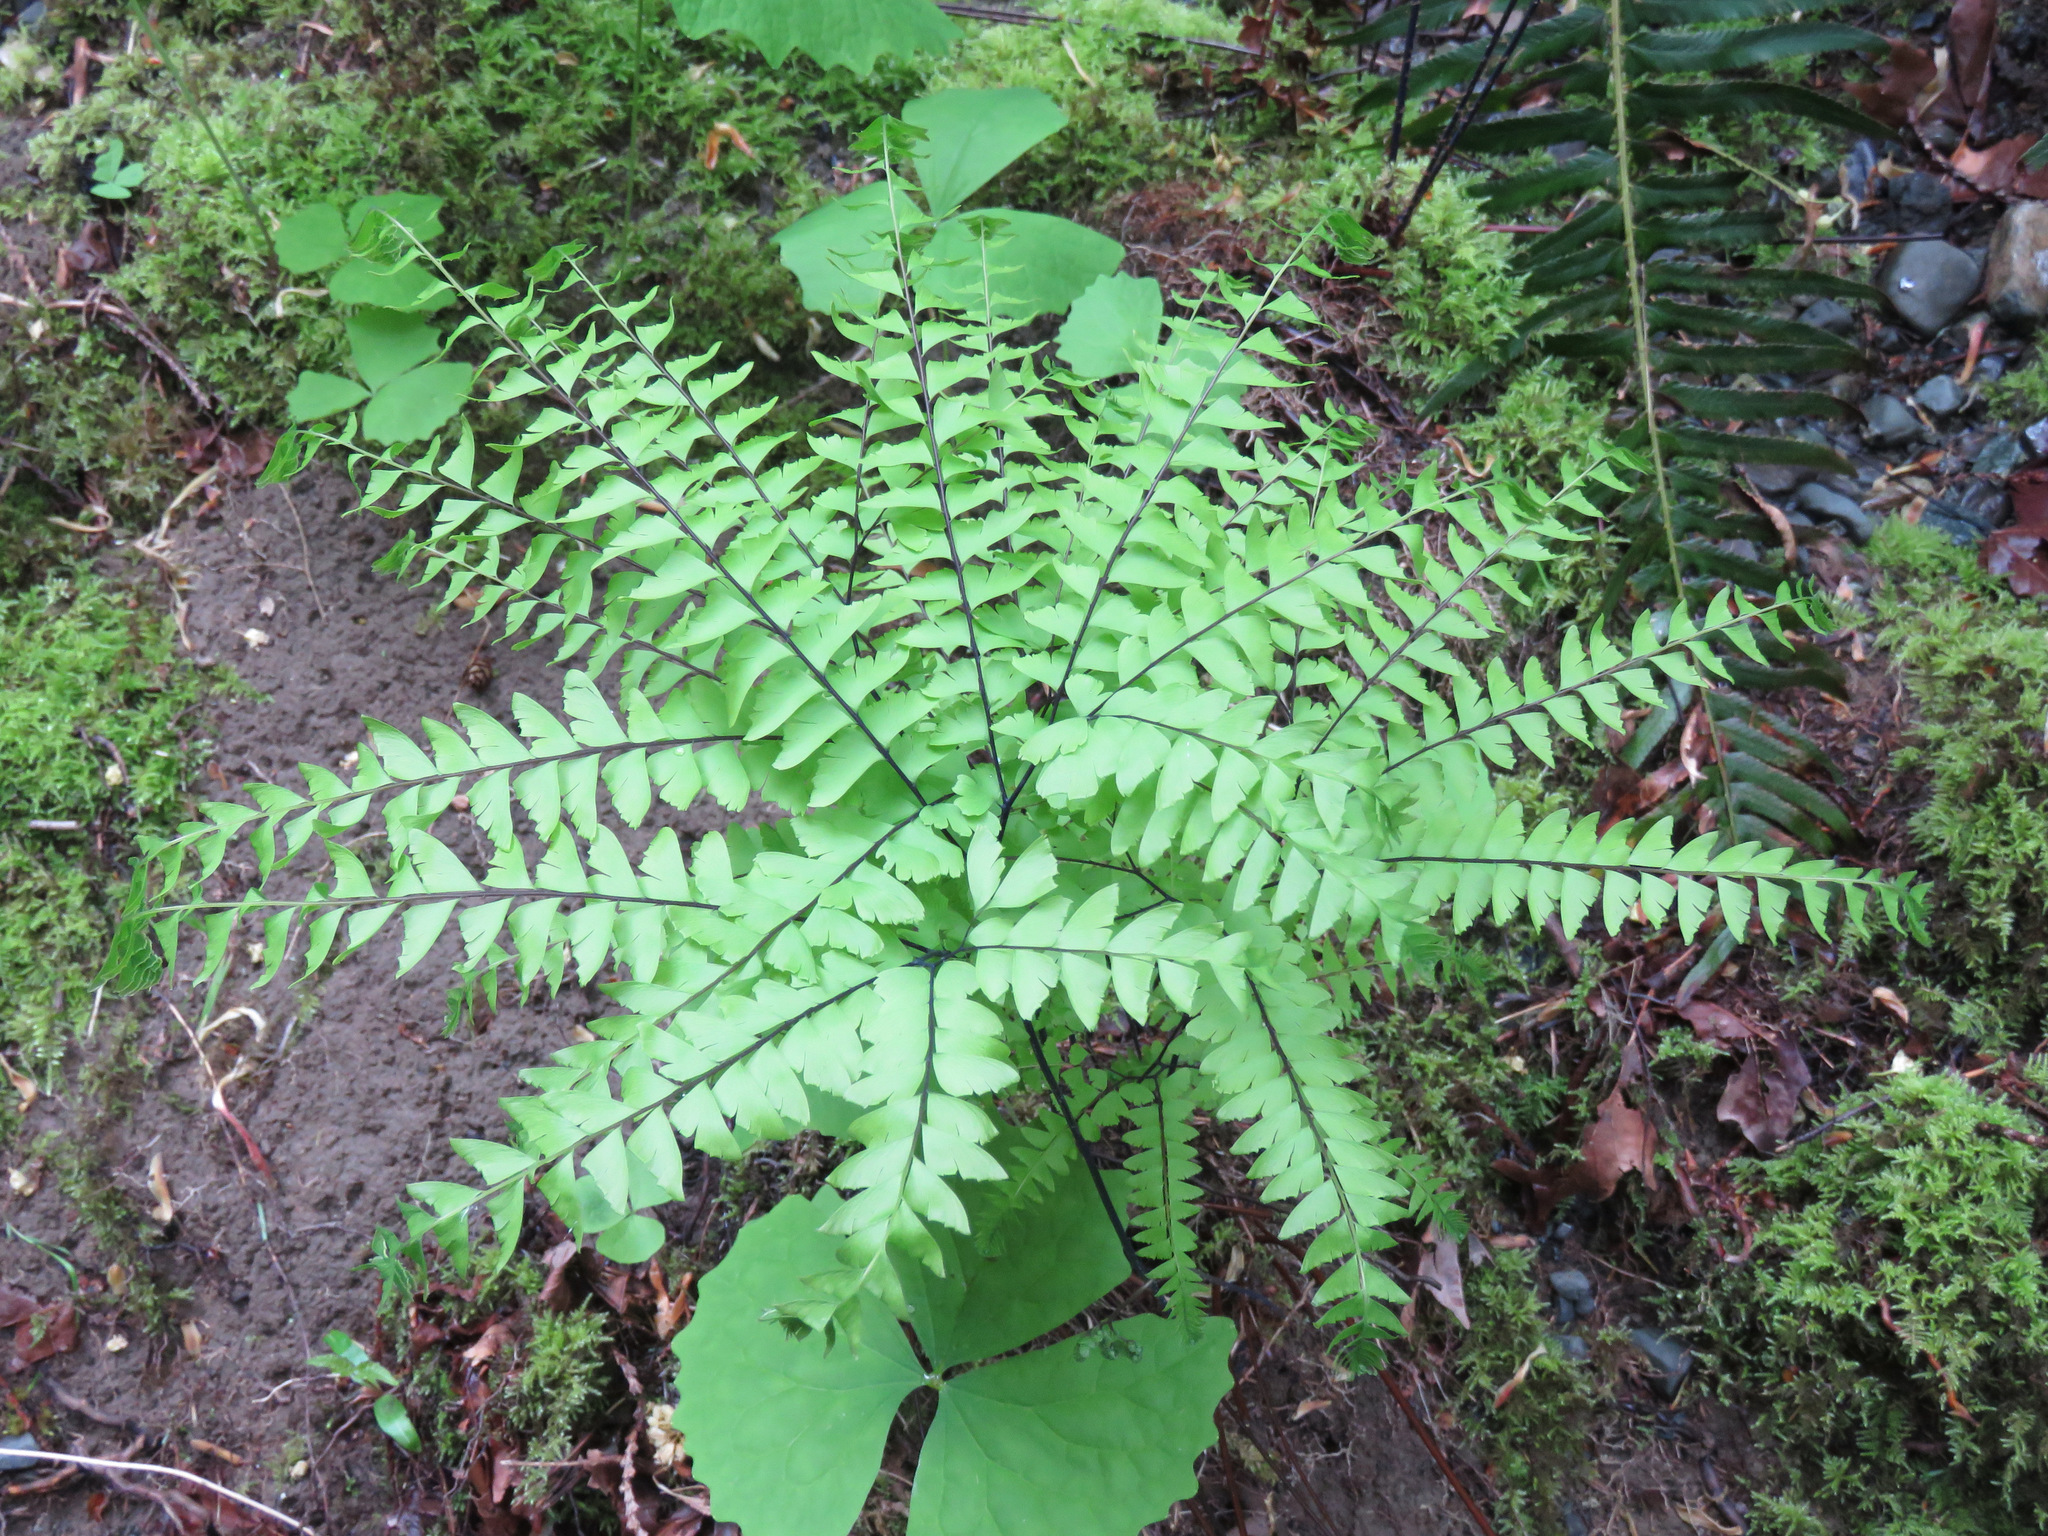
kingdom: Plantae
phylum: Tracheophyta
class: Polypodiopsida
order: Polypodiales
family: Pteridaceae
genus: Adiantum
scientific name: Adiantum aleuticum
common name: Aleutian maidenhair fern
